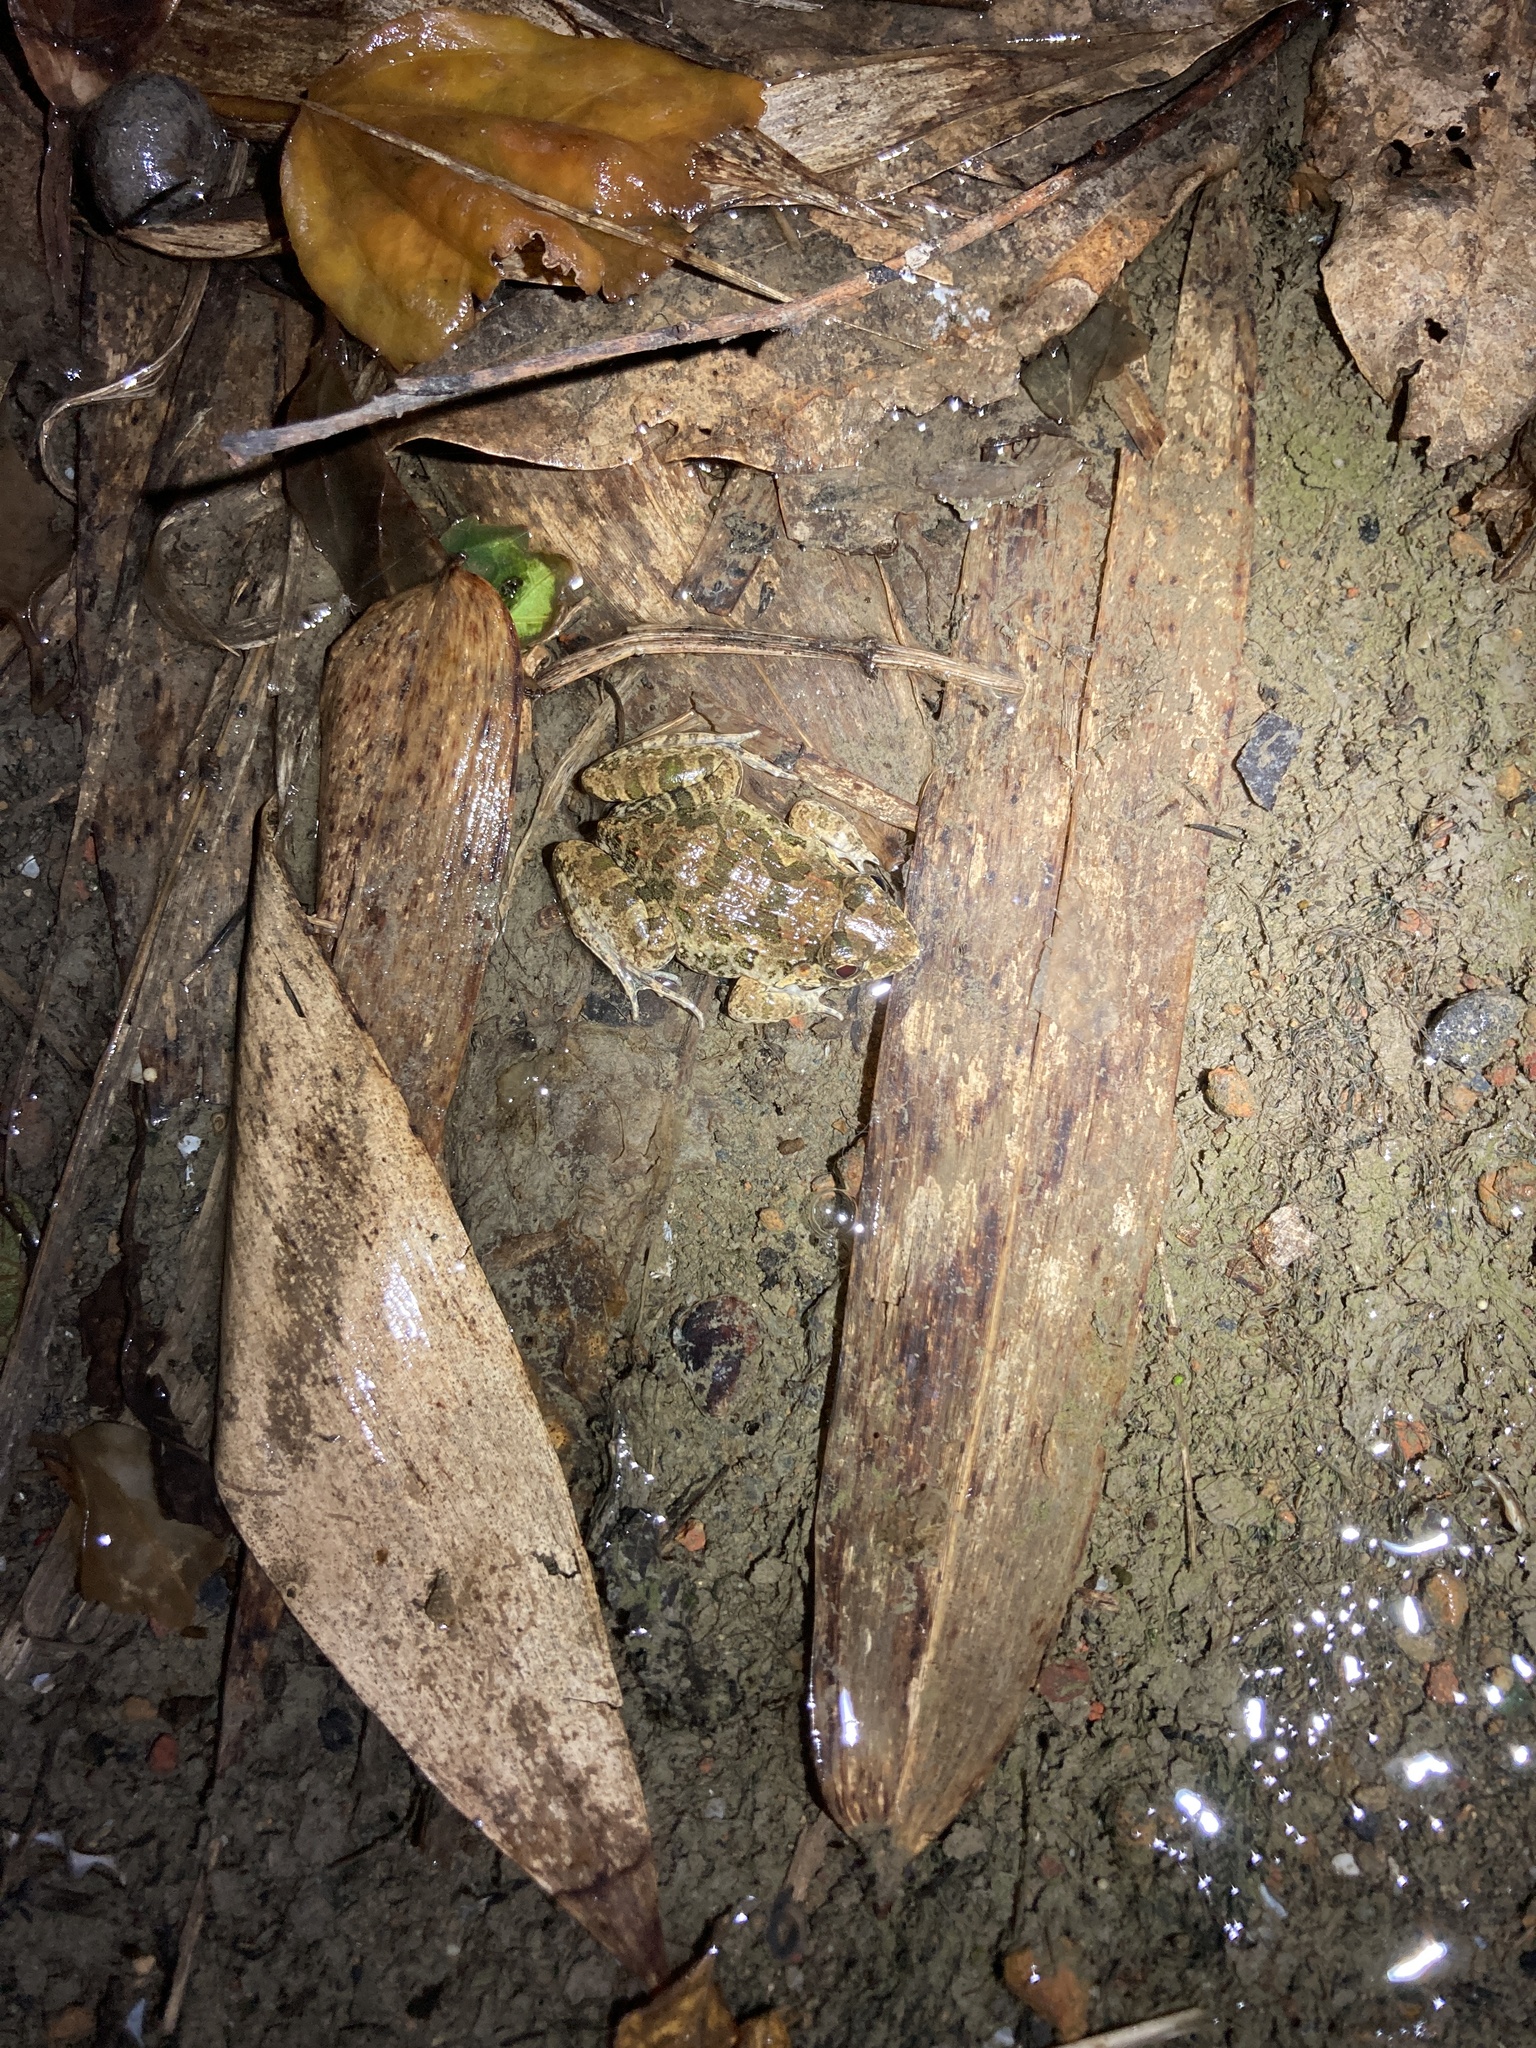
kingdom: Animalia
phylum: Chordata
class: Amphibia
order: Anura
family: Dicroglossidae
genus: Fejervarya
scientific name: Fejervarya limnocharis
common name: Asian grass frog/common pond frog/field frog/grass frog/indian rice frog
